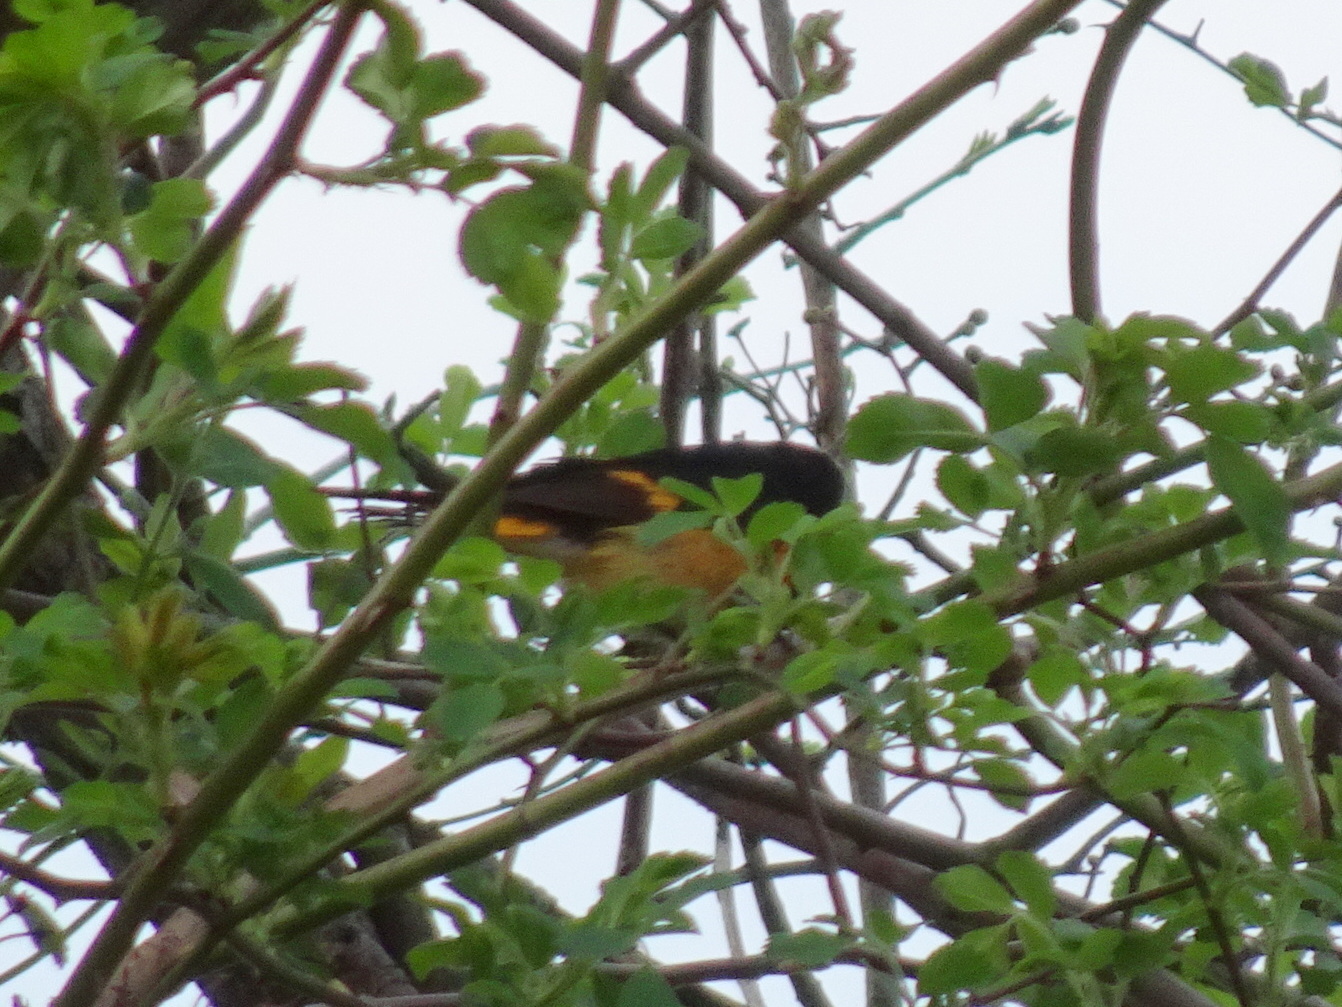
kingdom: Animalia
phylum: Chordata
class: Aves
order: Passeriformes
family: Parulidae
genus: Setophaga
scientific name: Setophaga ruticilla
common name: American redstart
